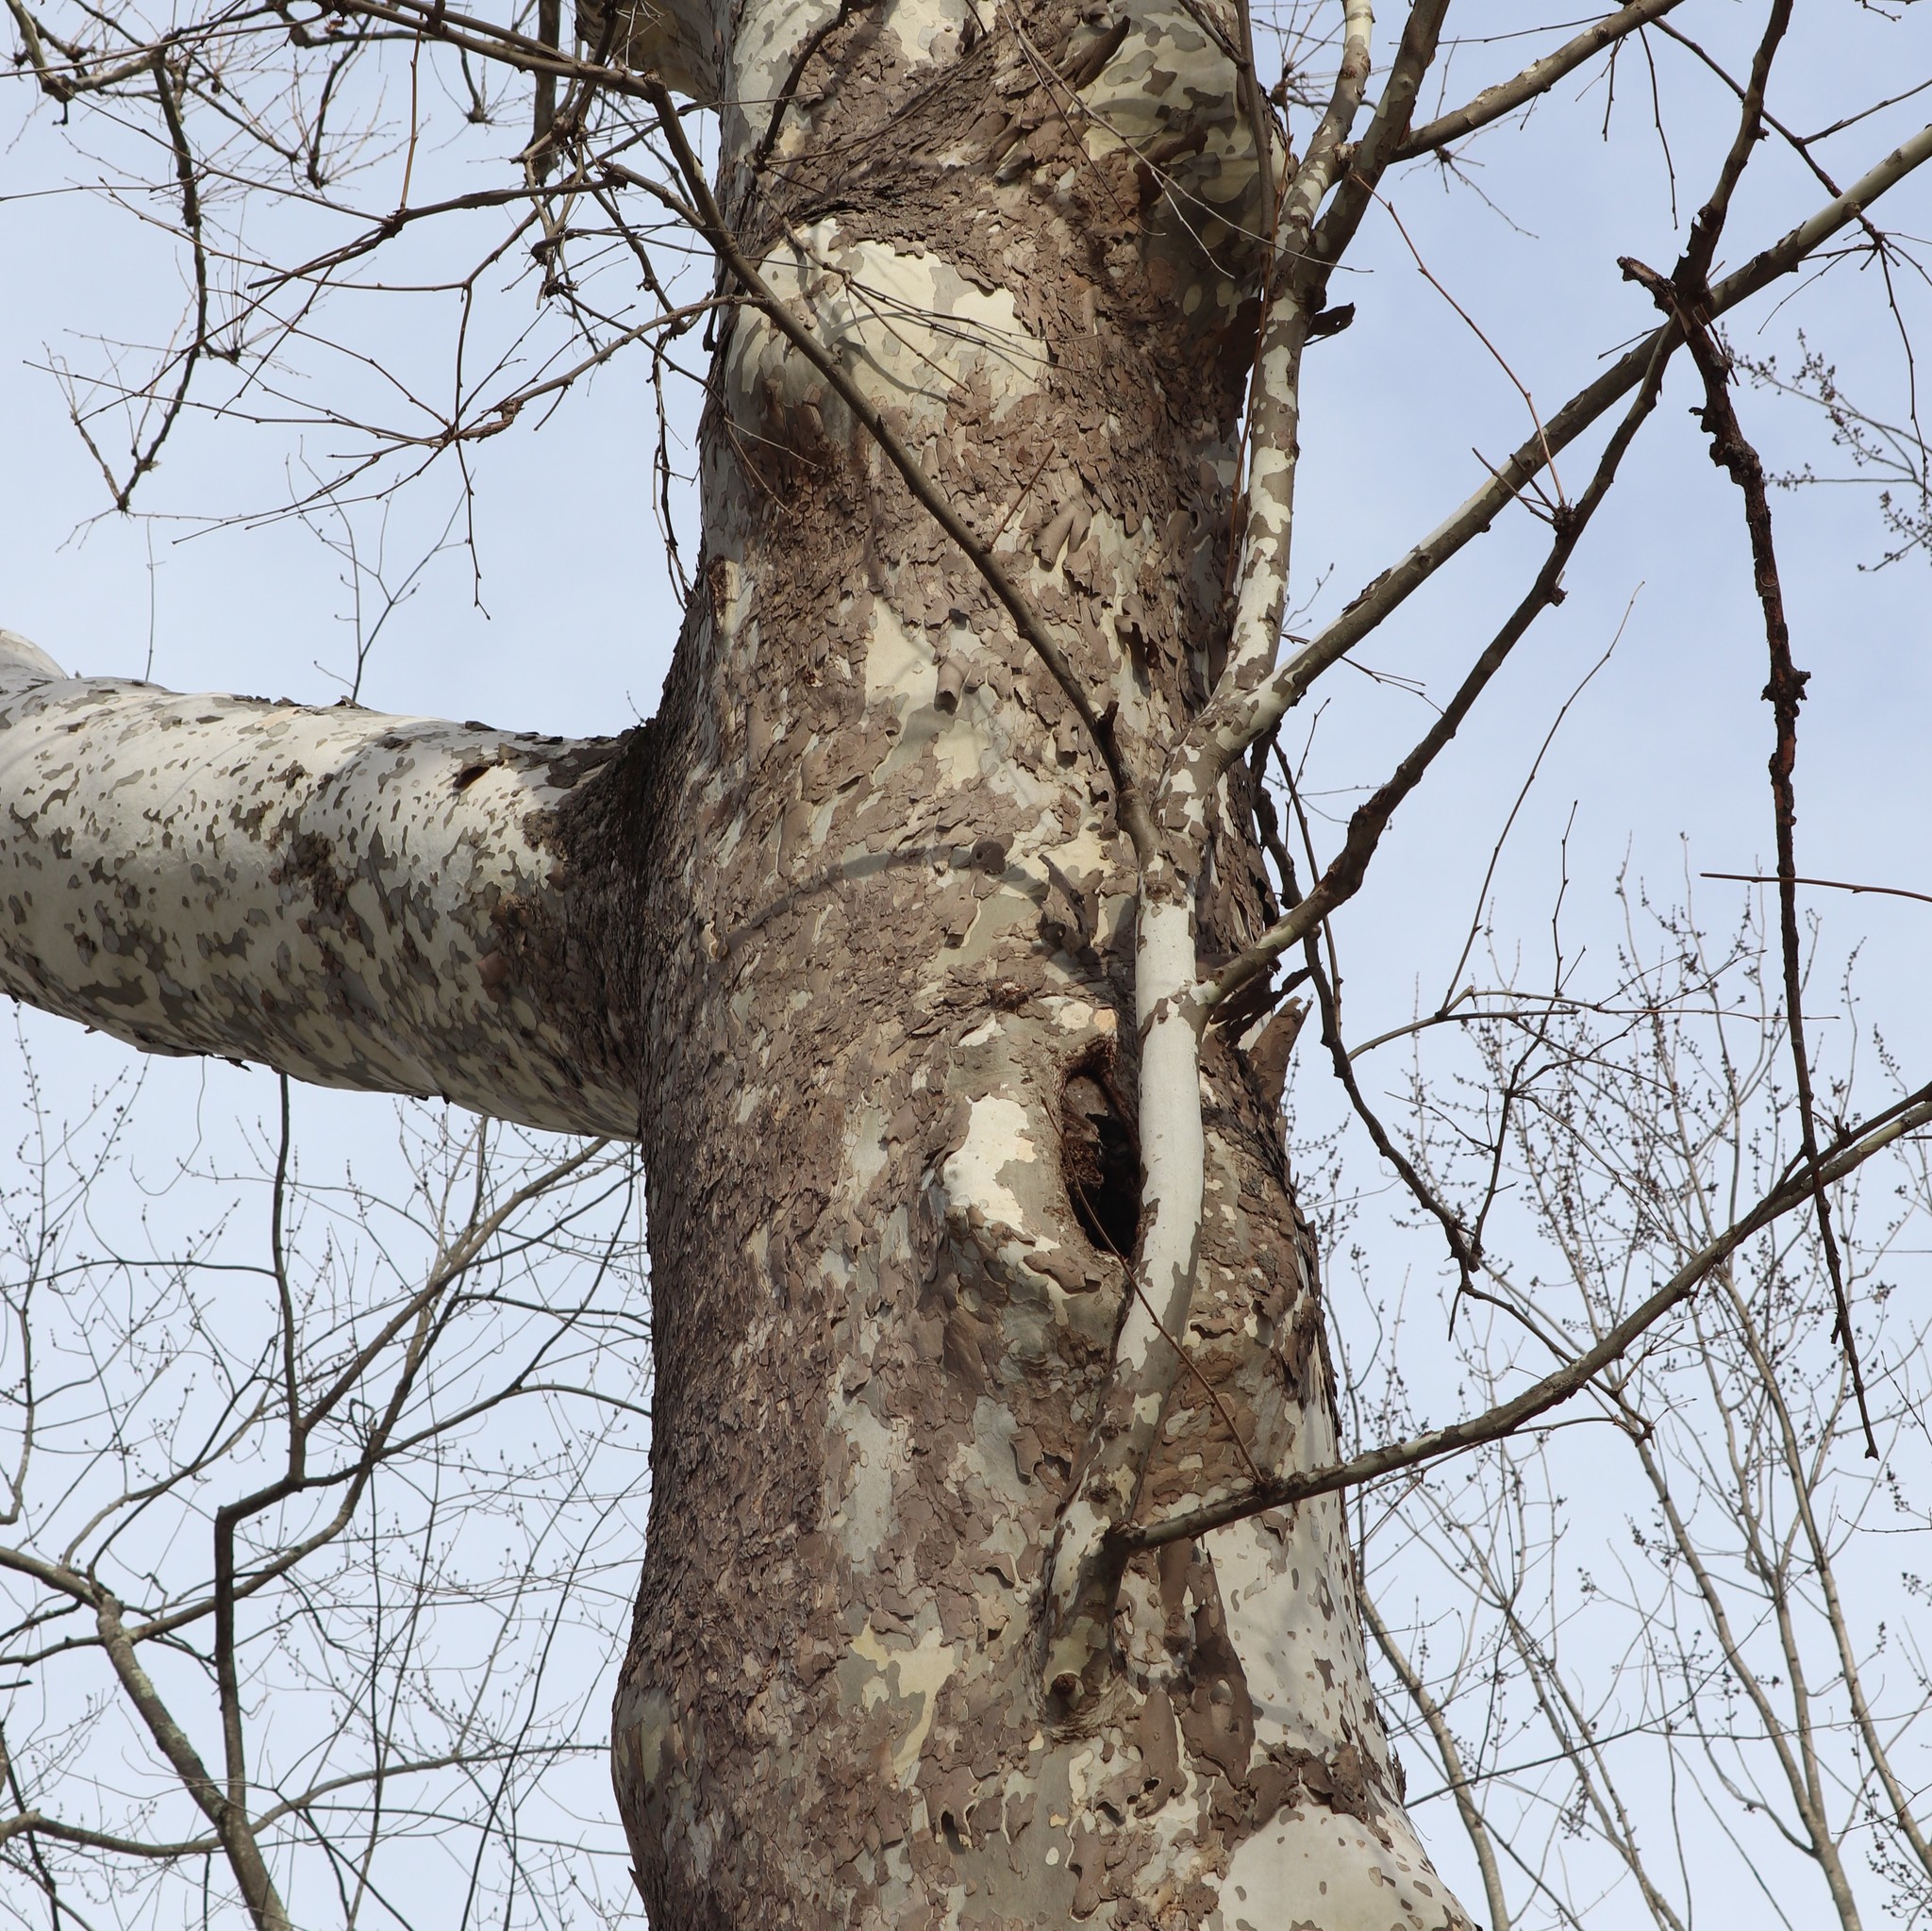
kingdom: Plantae
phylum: Tracheophyta
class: Magnoliopsida
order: Proteales
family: Platanaceae
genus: Platanus
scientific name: Platanus occidentalis
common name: American sycamore
